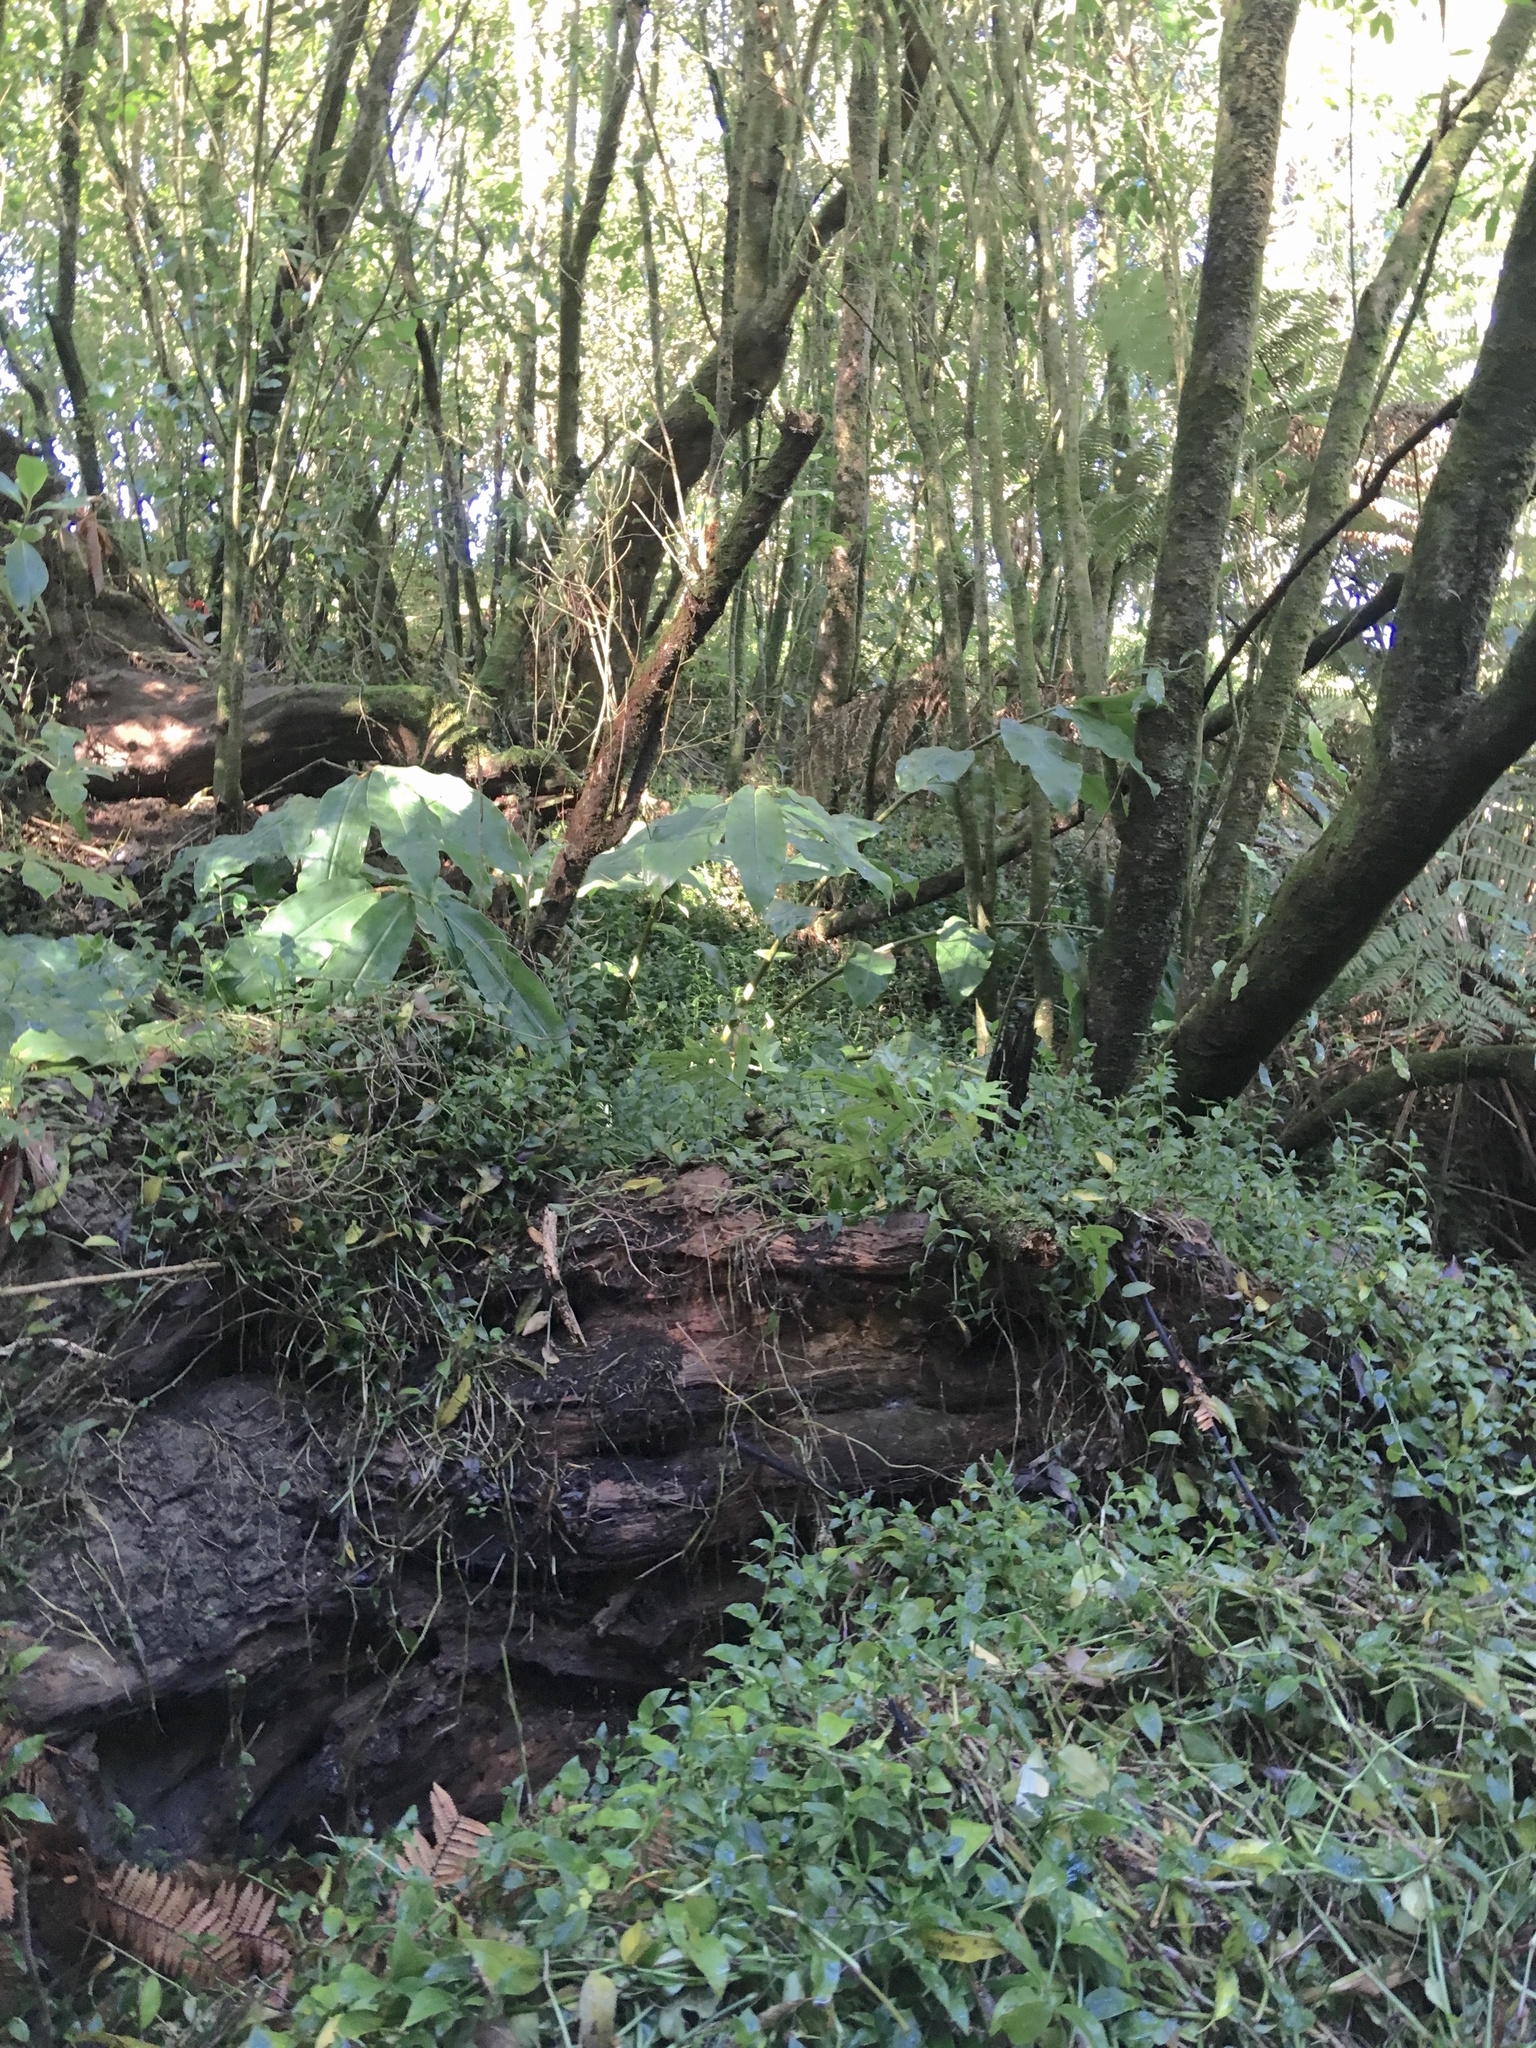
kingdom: Plantae
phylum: Tracheophyta
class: Liliopsida
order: Zingiberales
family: Zingiberaceae
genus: Hedychium
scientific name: Hedychium gardnerianum
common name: Himalayan ginger
